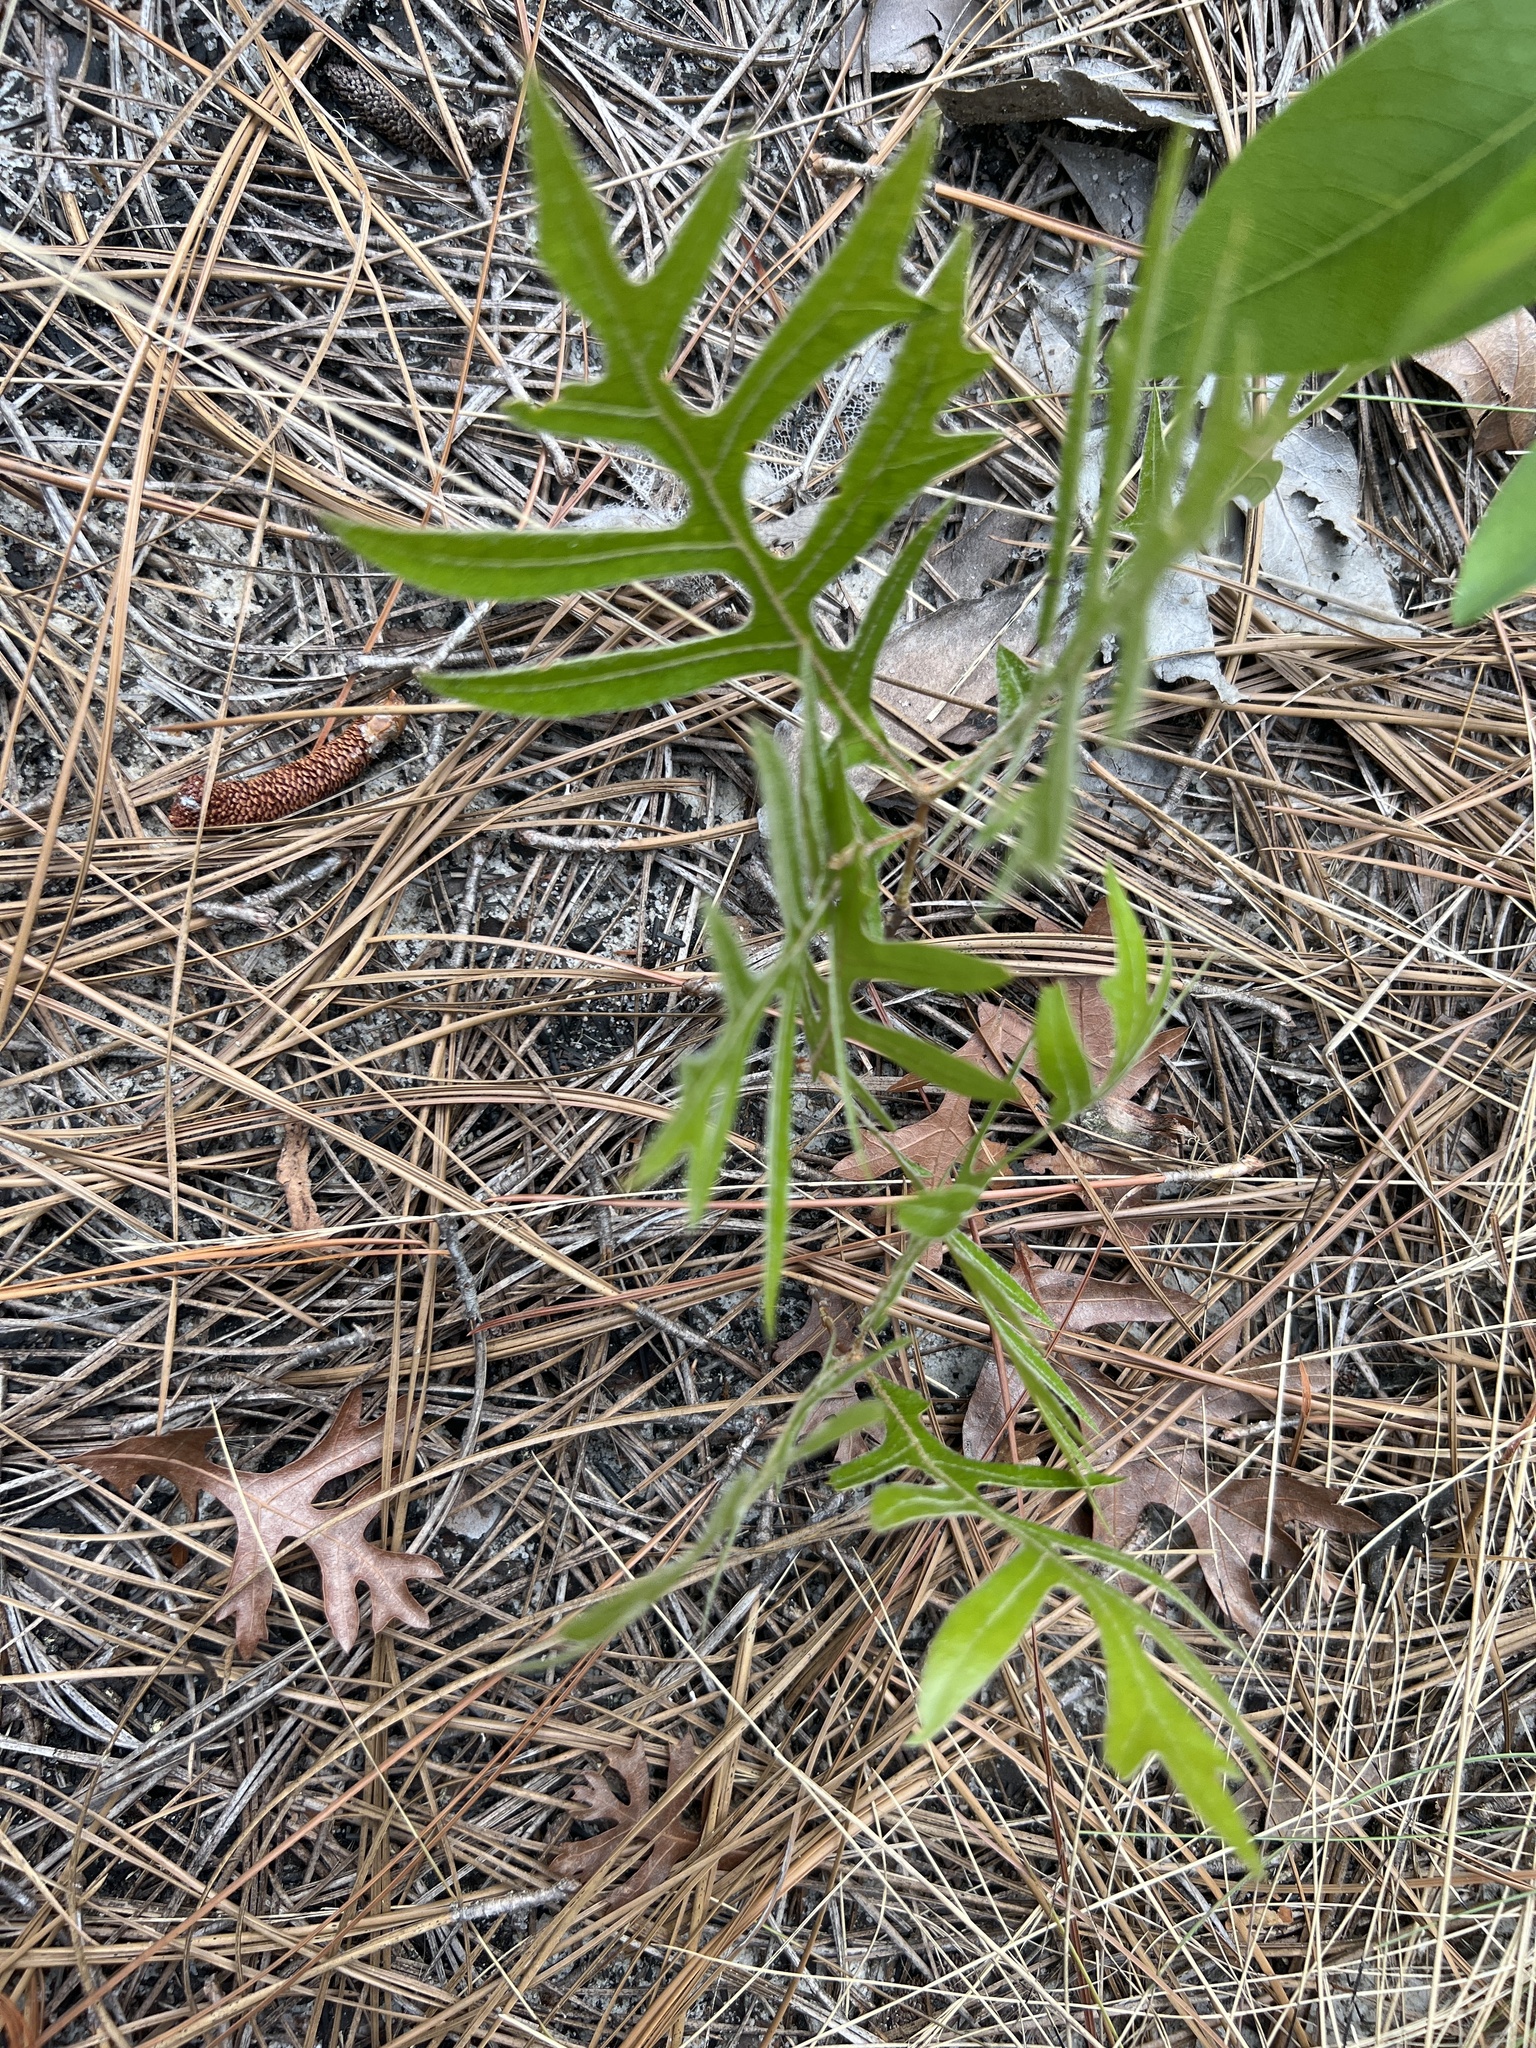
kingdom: Plantae
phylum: Tracheophyta
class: Magnoliopsida
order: Fagales
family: Fagaceae
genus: Quercus
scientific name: Quercus laevis
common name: Turkey oak
